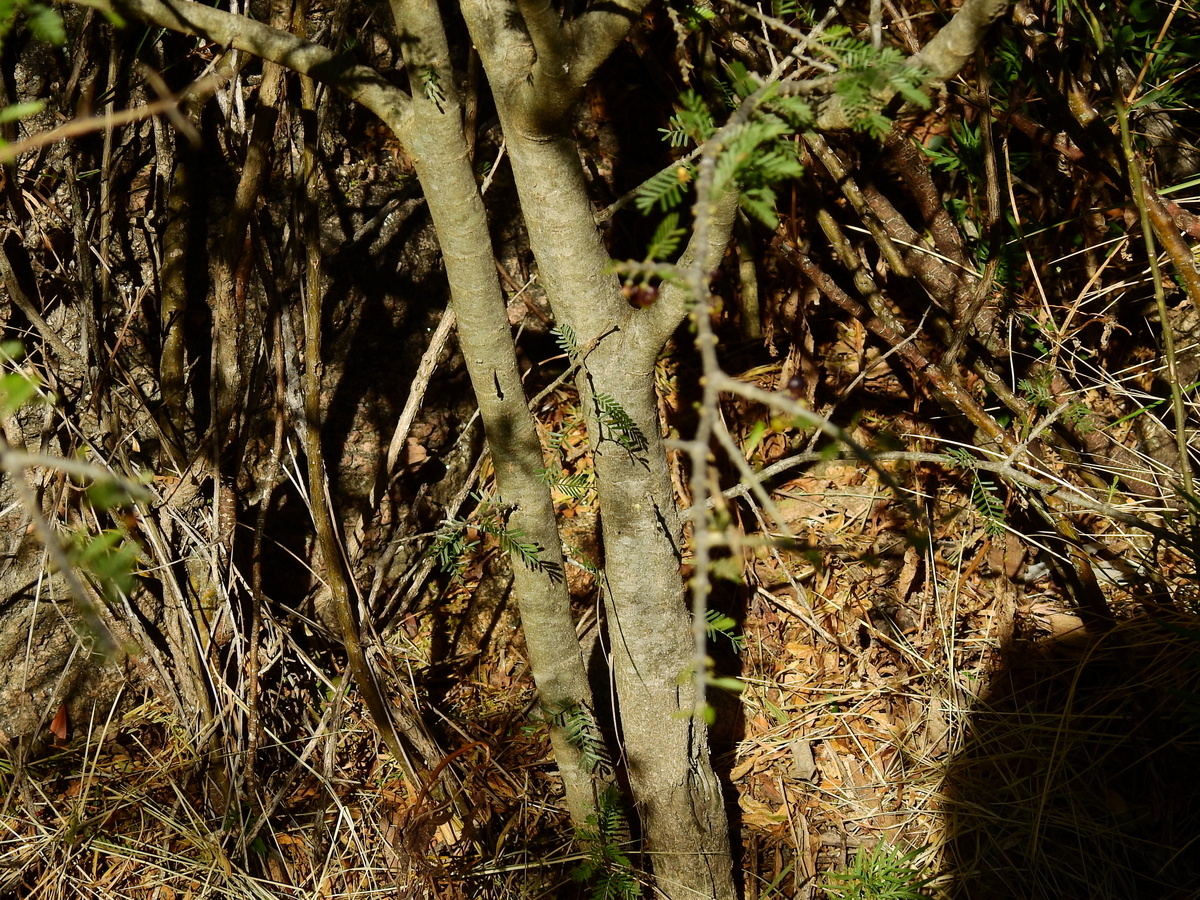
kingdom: Plantae
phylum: Tracheophyta
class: Magnoliopsida
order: Zygophyllales
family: Zygophyllaceae
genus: Porlieria
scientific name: Porlieria microphylla
